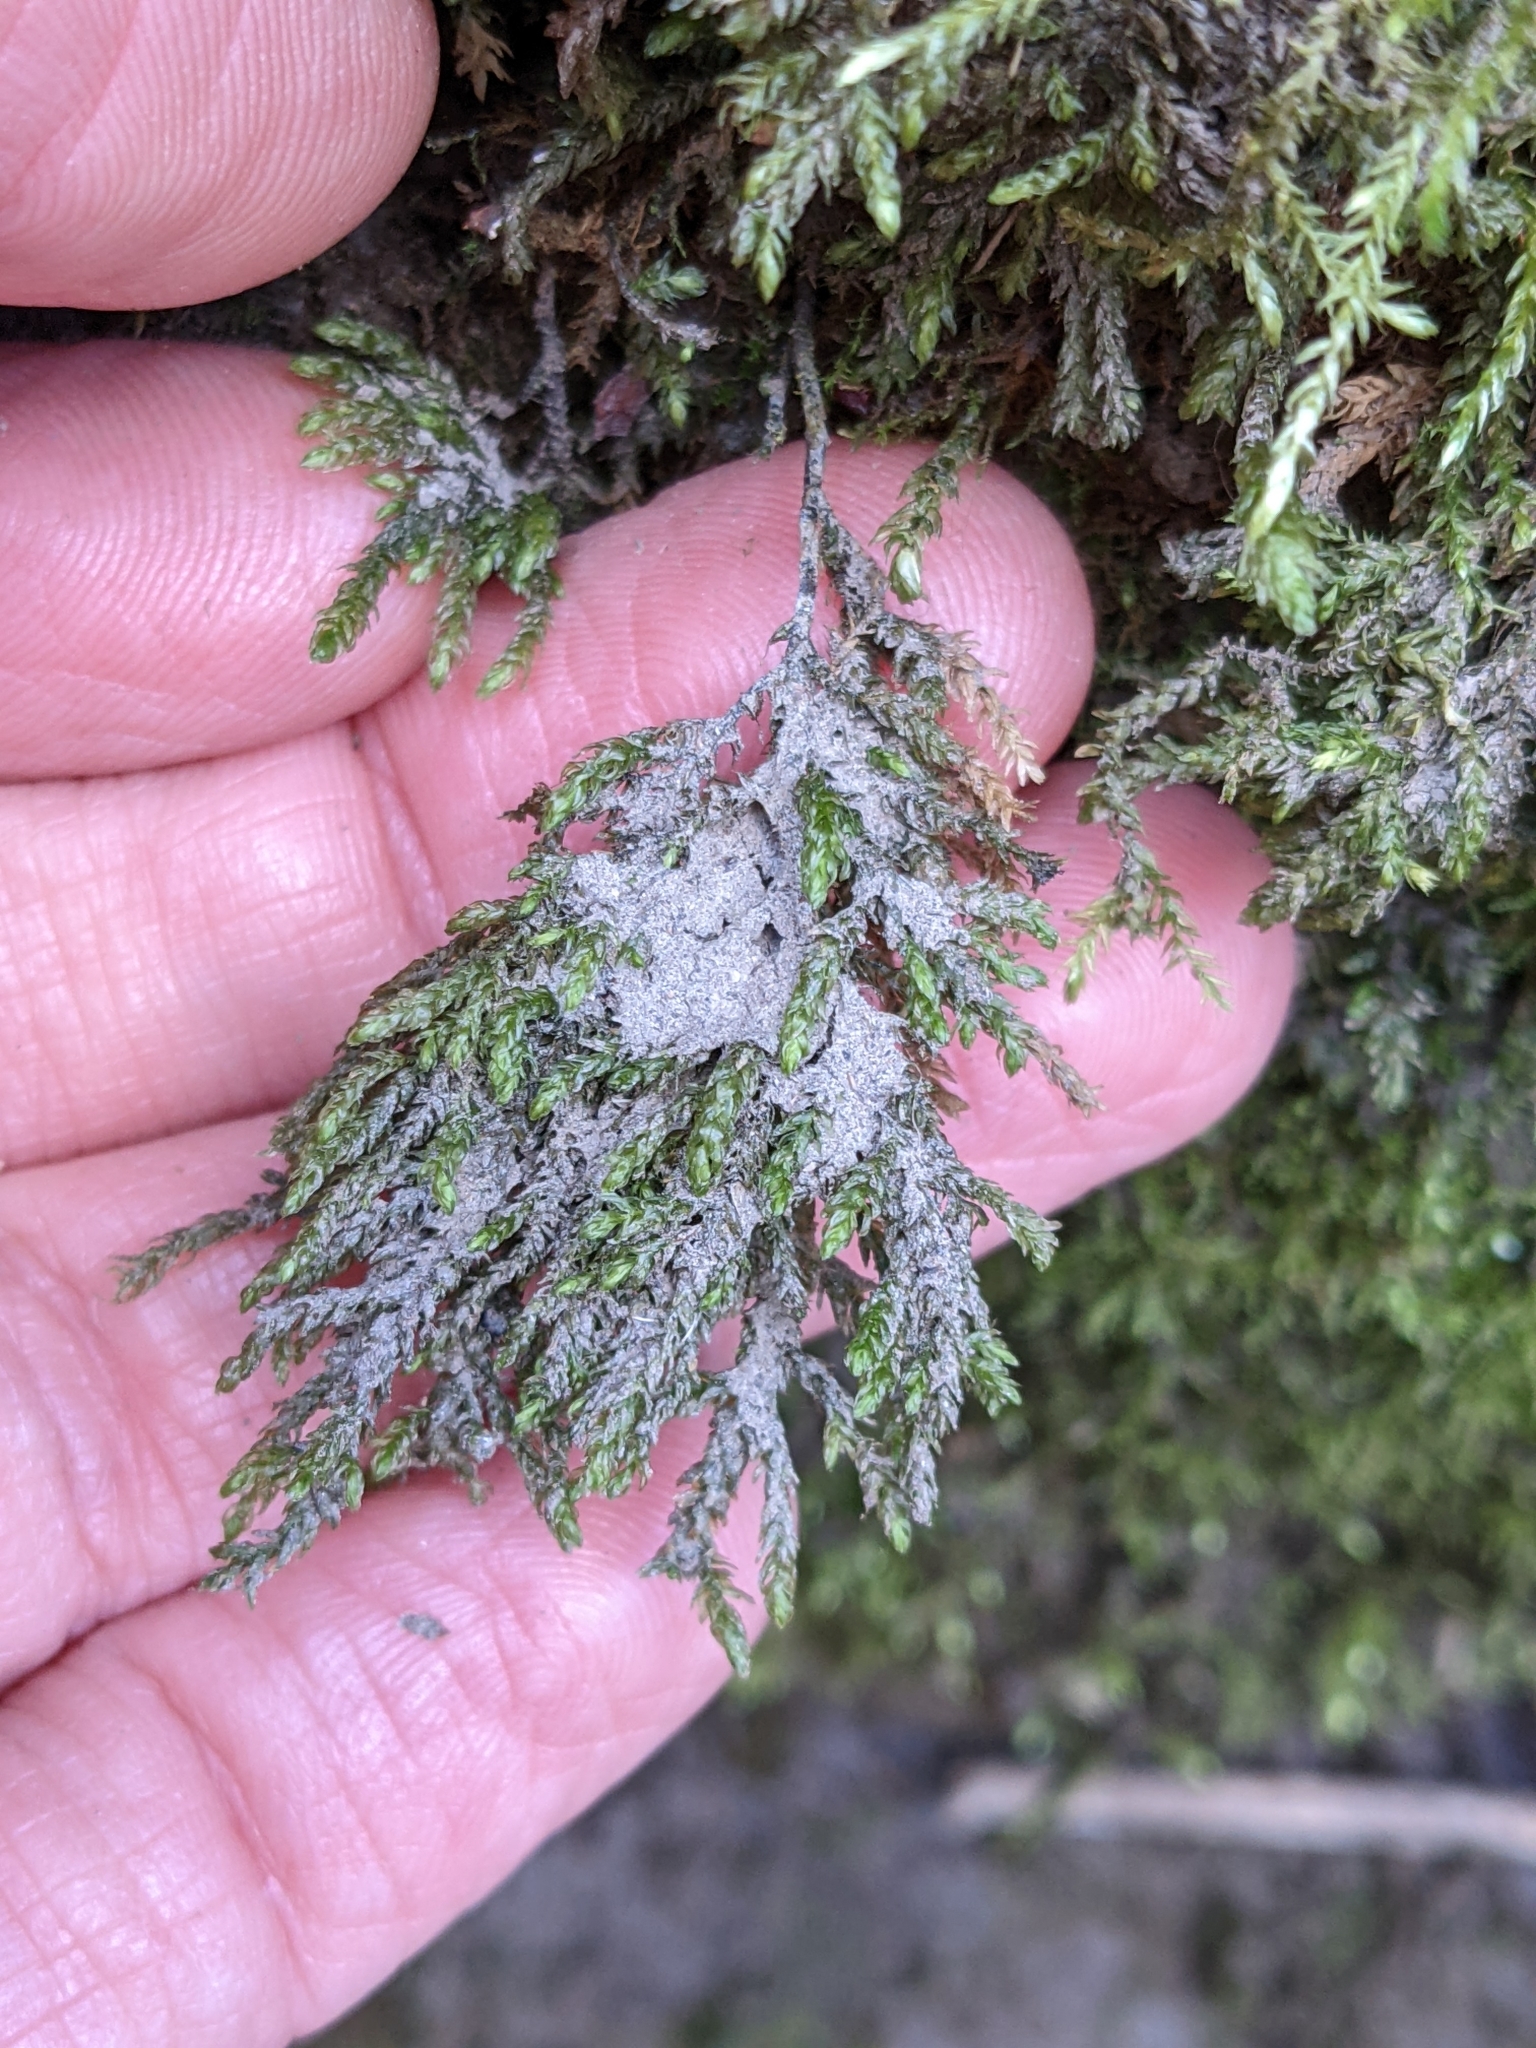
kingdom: Plantae
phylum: Bryophyta
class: Bryopsida
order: Hypnales
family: Neckeraceae
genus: Thamnobryum
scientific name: Thamnobryum alopecurum
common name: Fox-tail feather-moss
